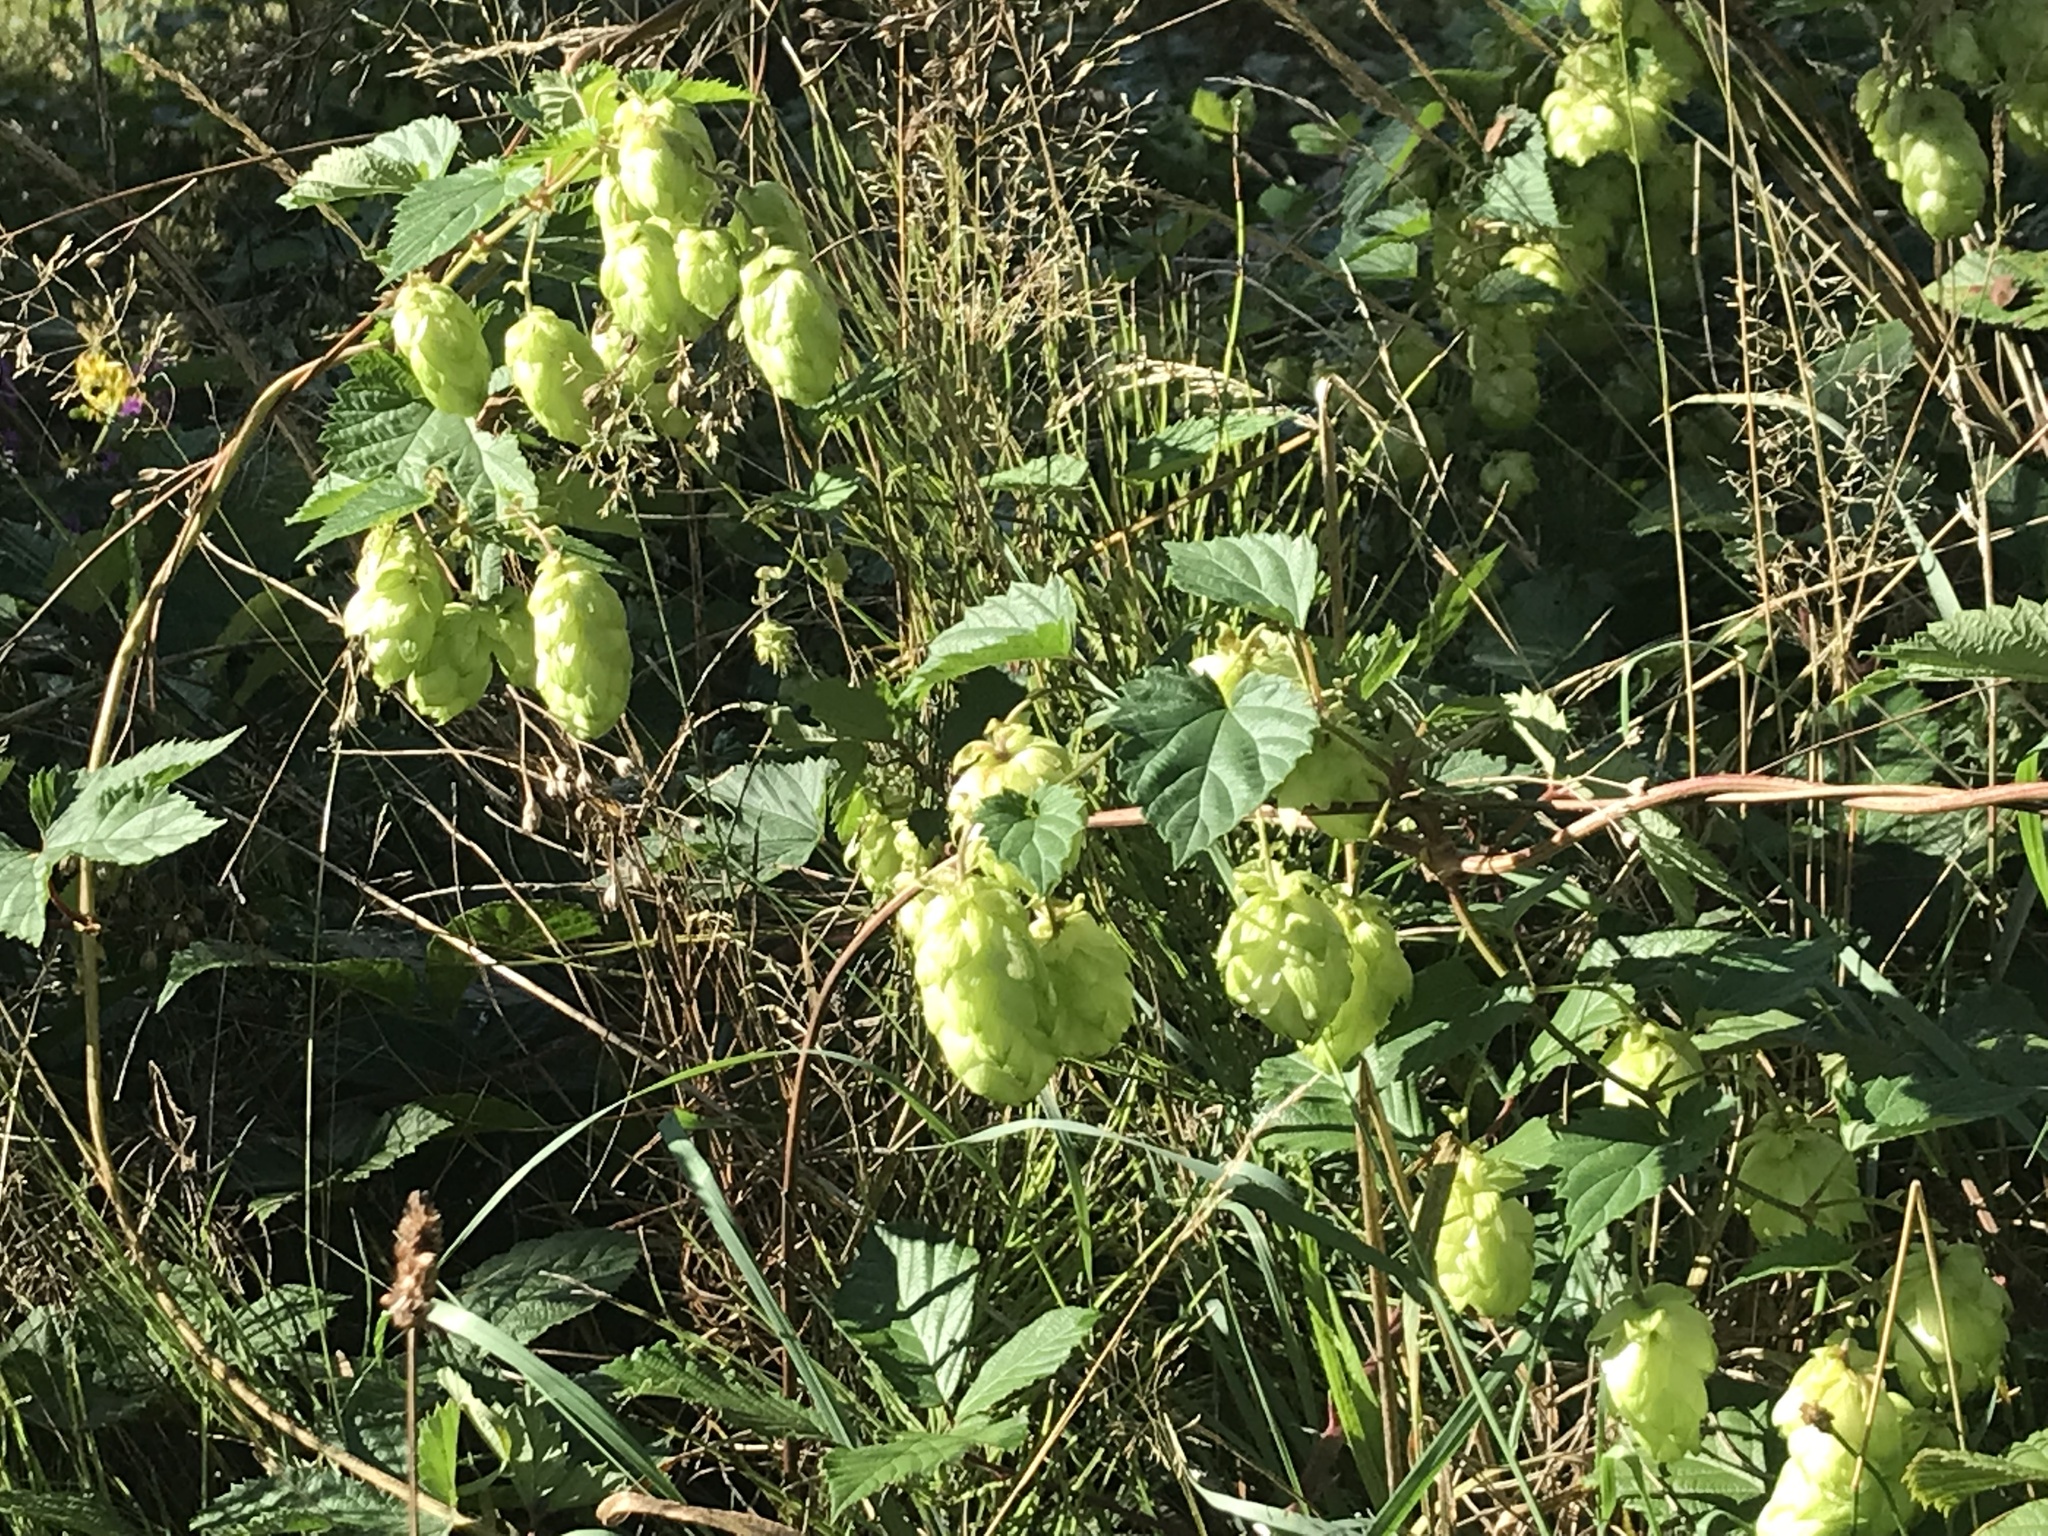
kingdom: Plantae
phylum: Tracheophyta
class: Magnoliopsida
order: Rosales
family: Cannabaceae
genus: Humulus
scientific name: Humulus lupulus
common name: Hop
